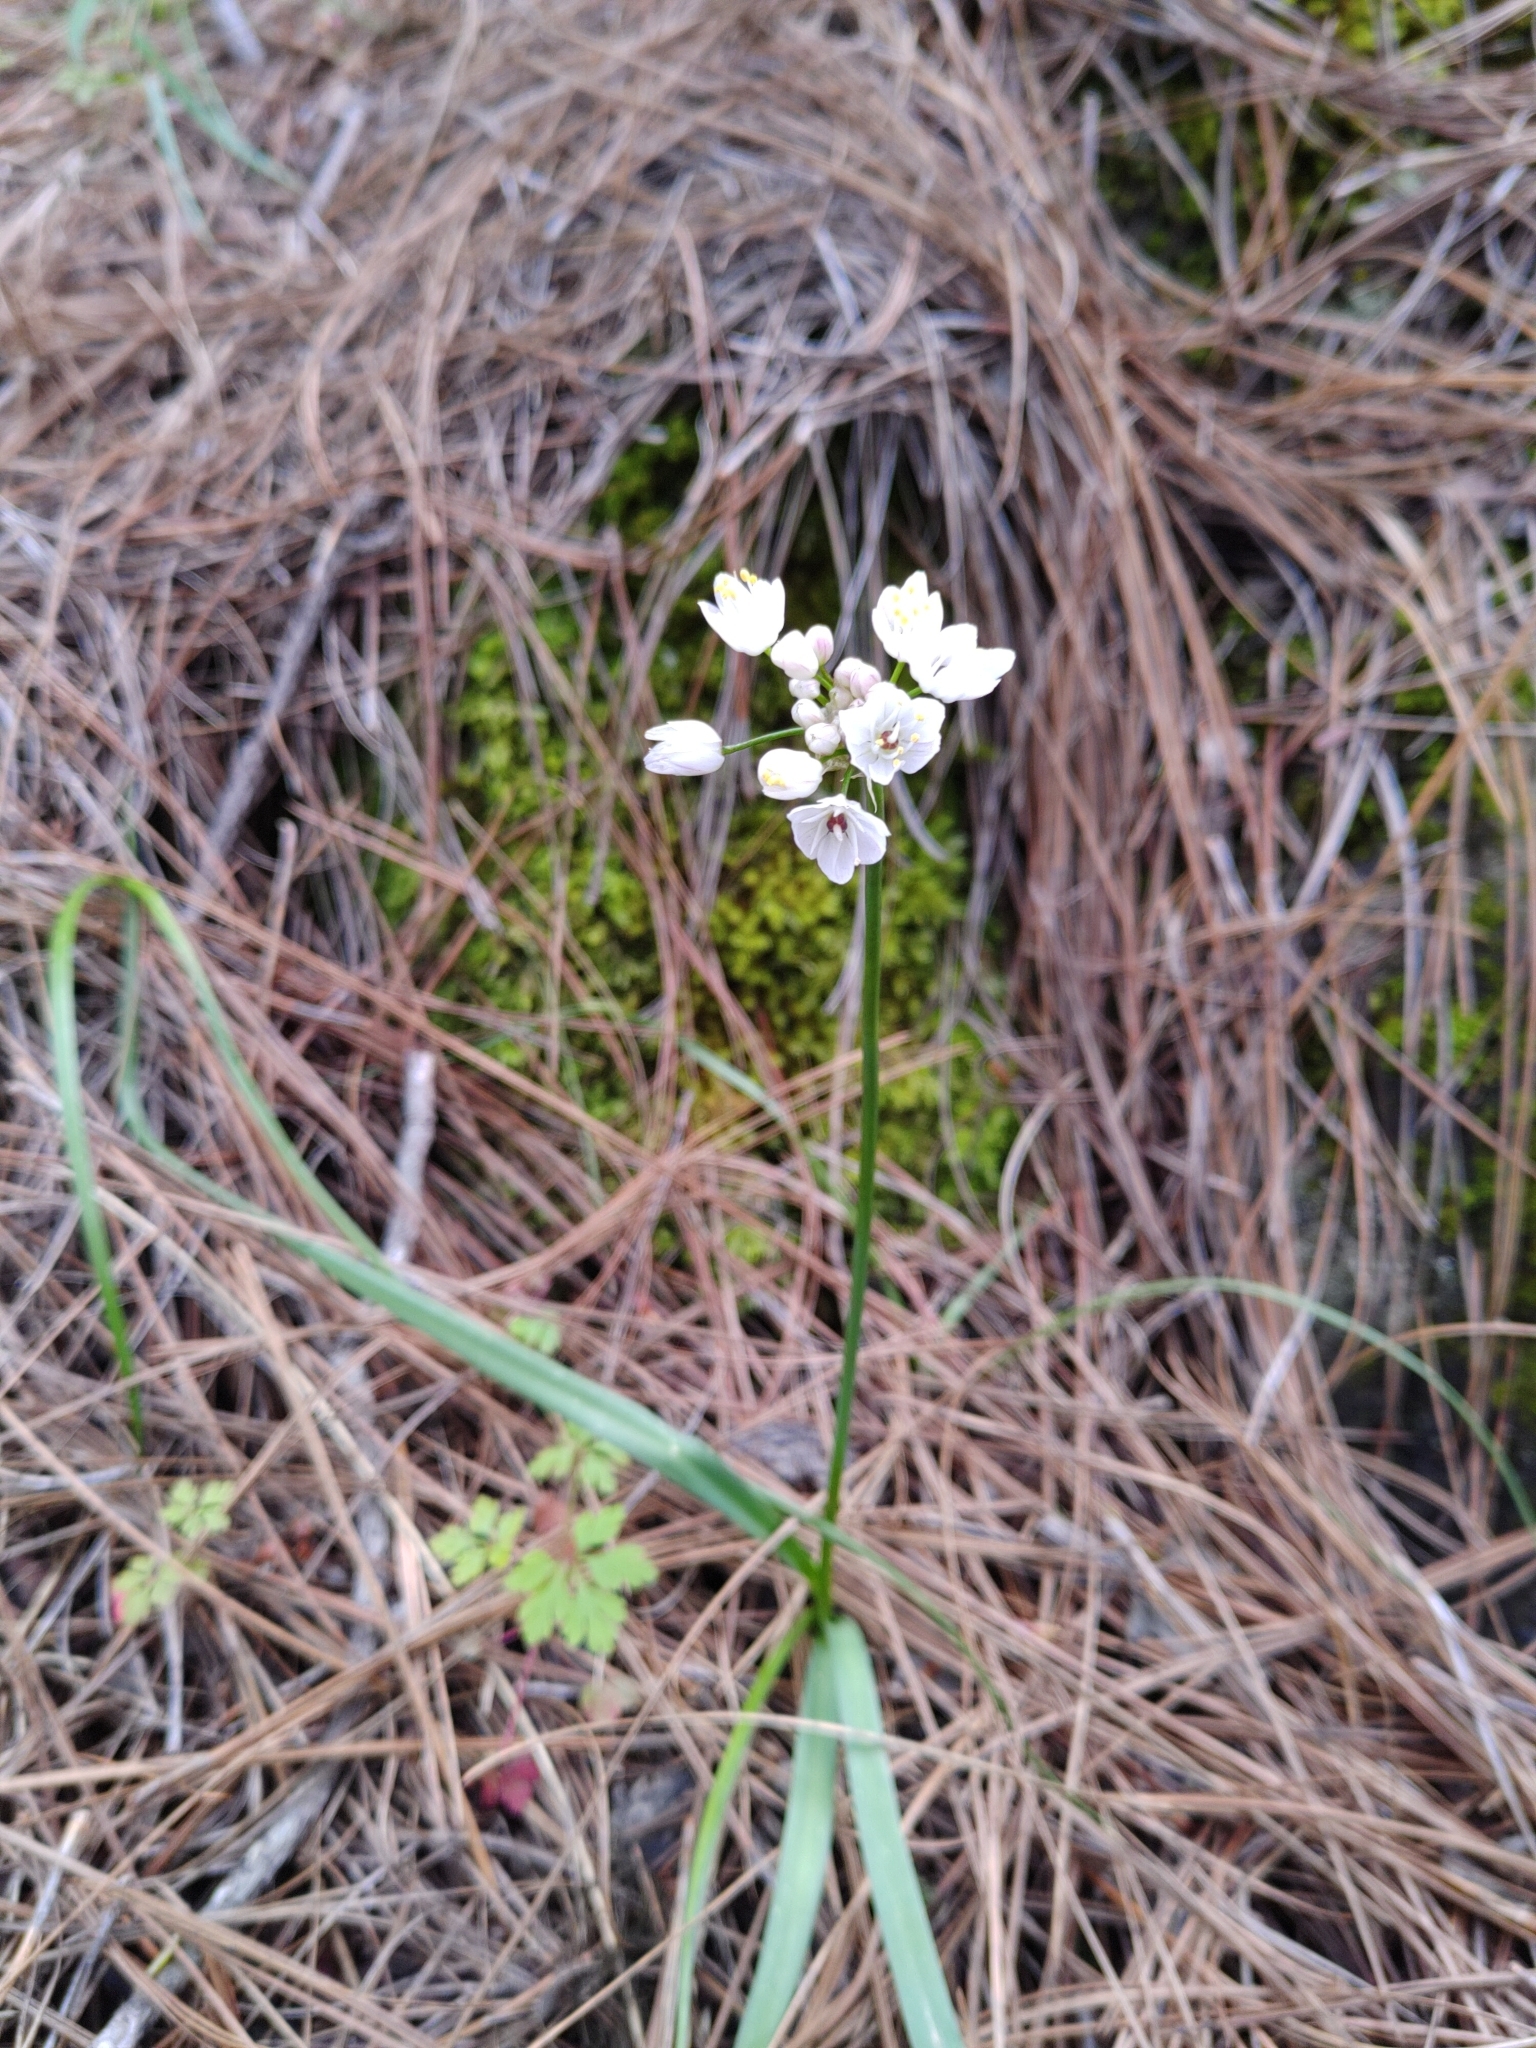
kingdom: Plantae
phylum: Tracheophyta
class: Liliopsida
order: Asparagales
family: Amaryllidaceae
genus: Allium
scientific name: Allium canariense
